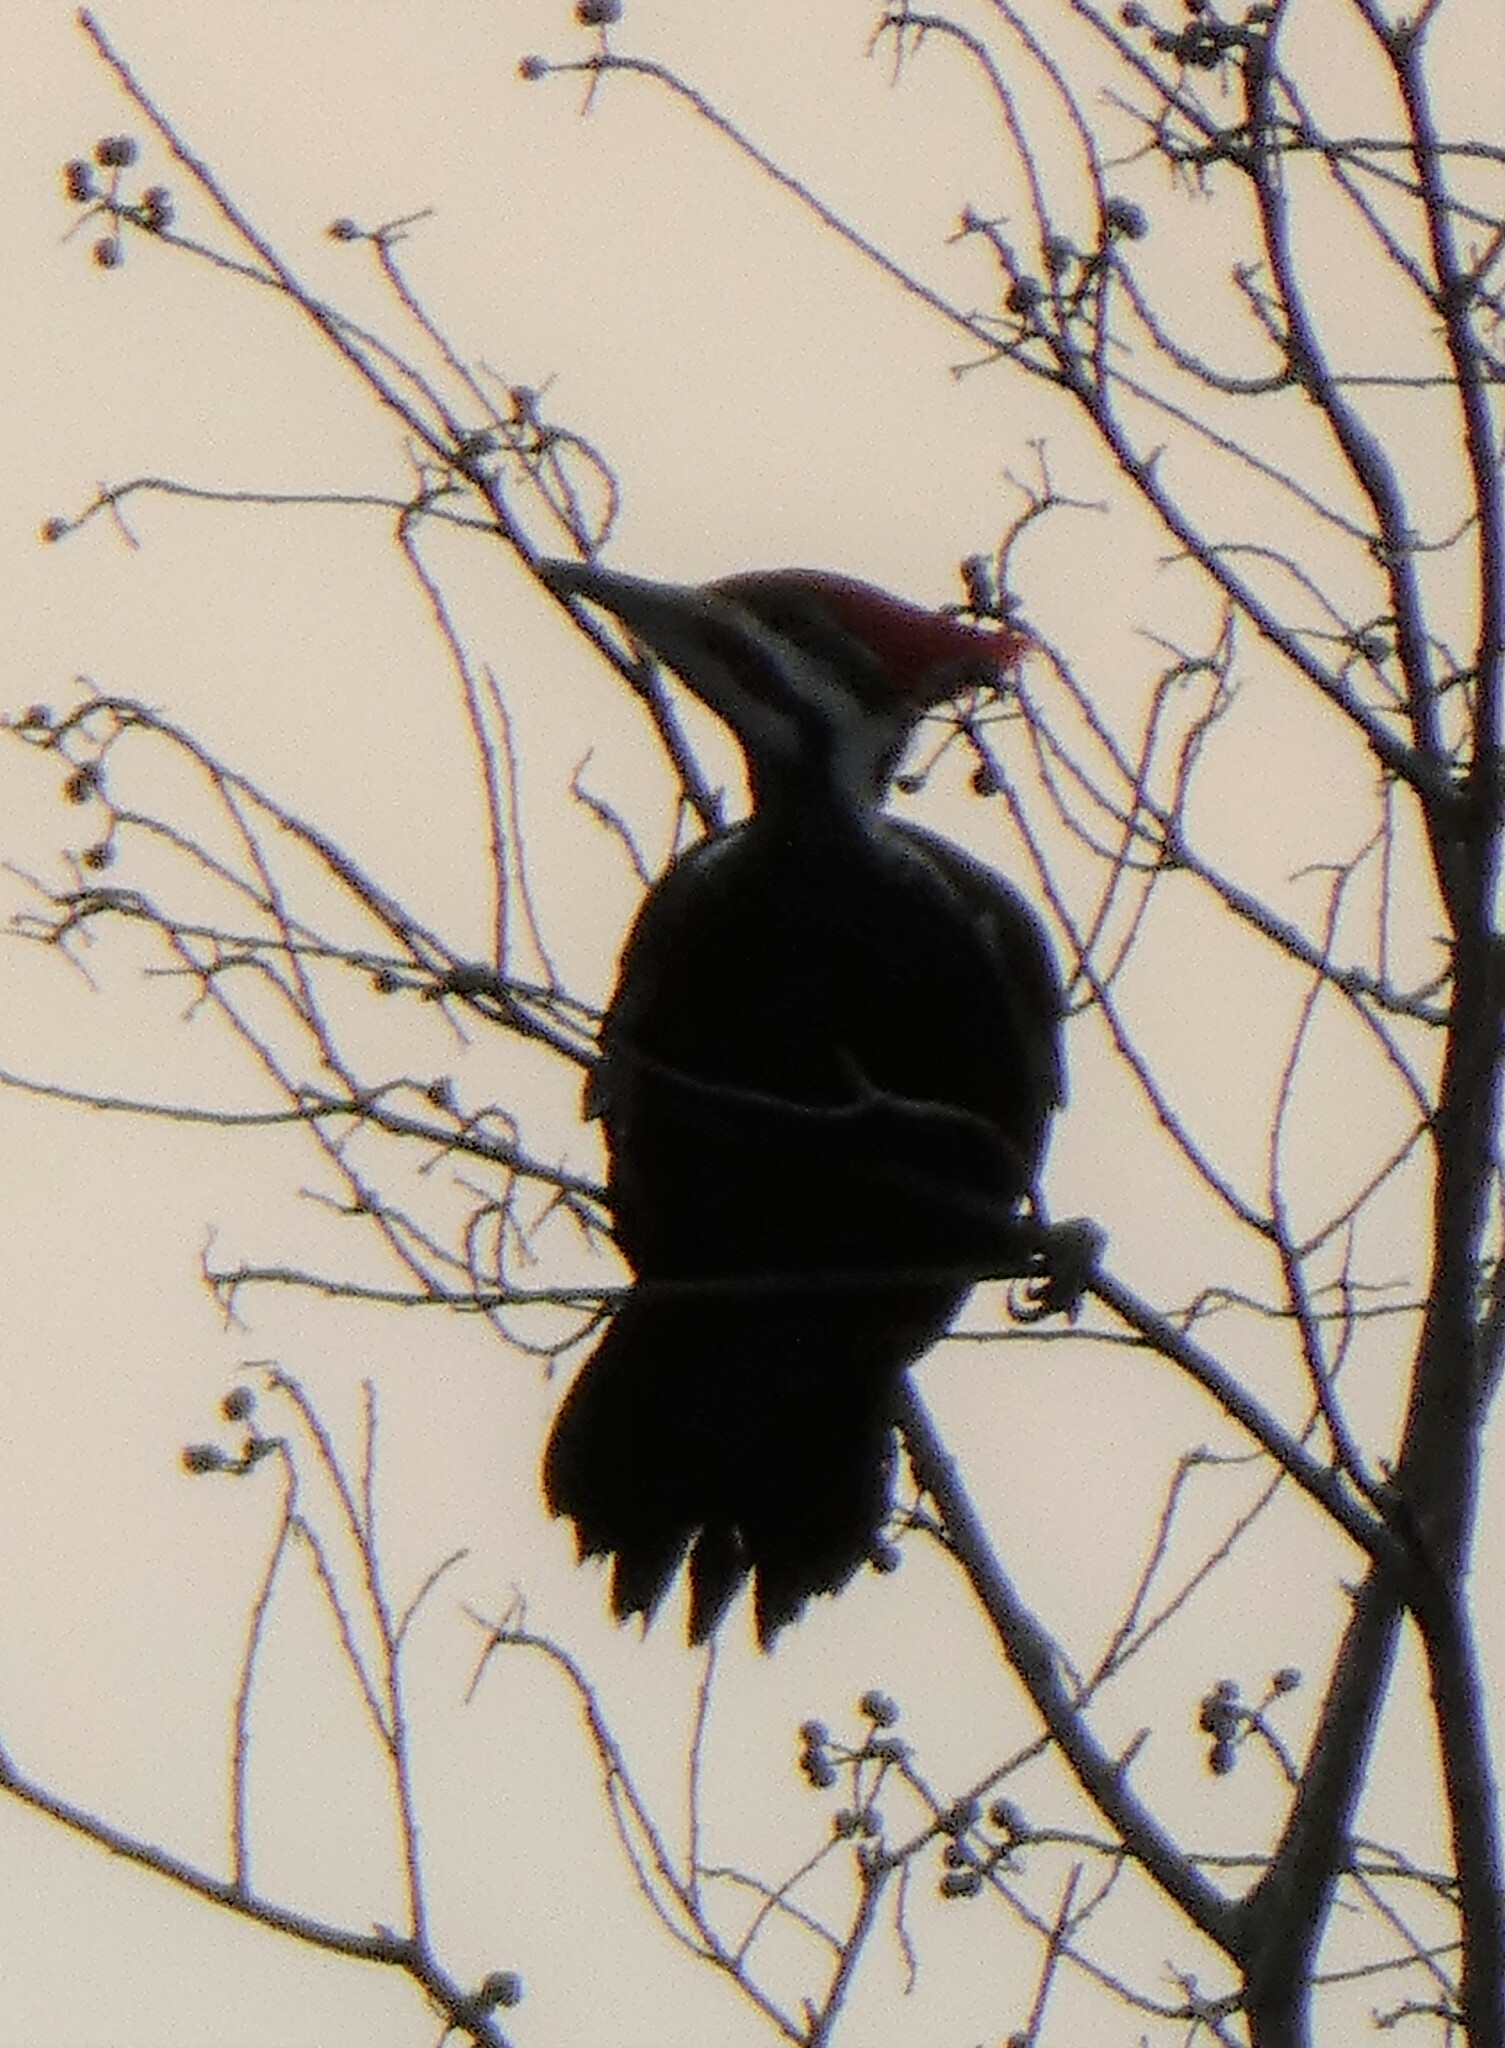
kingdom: Animalia
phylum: Chordata
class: Aves
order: Piciformes
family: Picidae
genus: Dryocopus
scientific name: Dryocopus pileatus
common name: Pileated woodpecker
